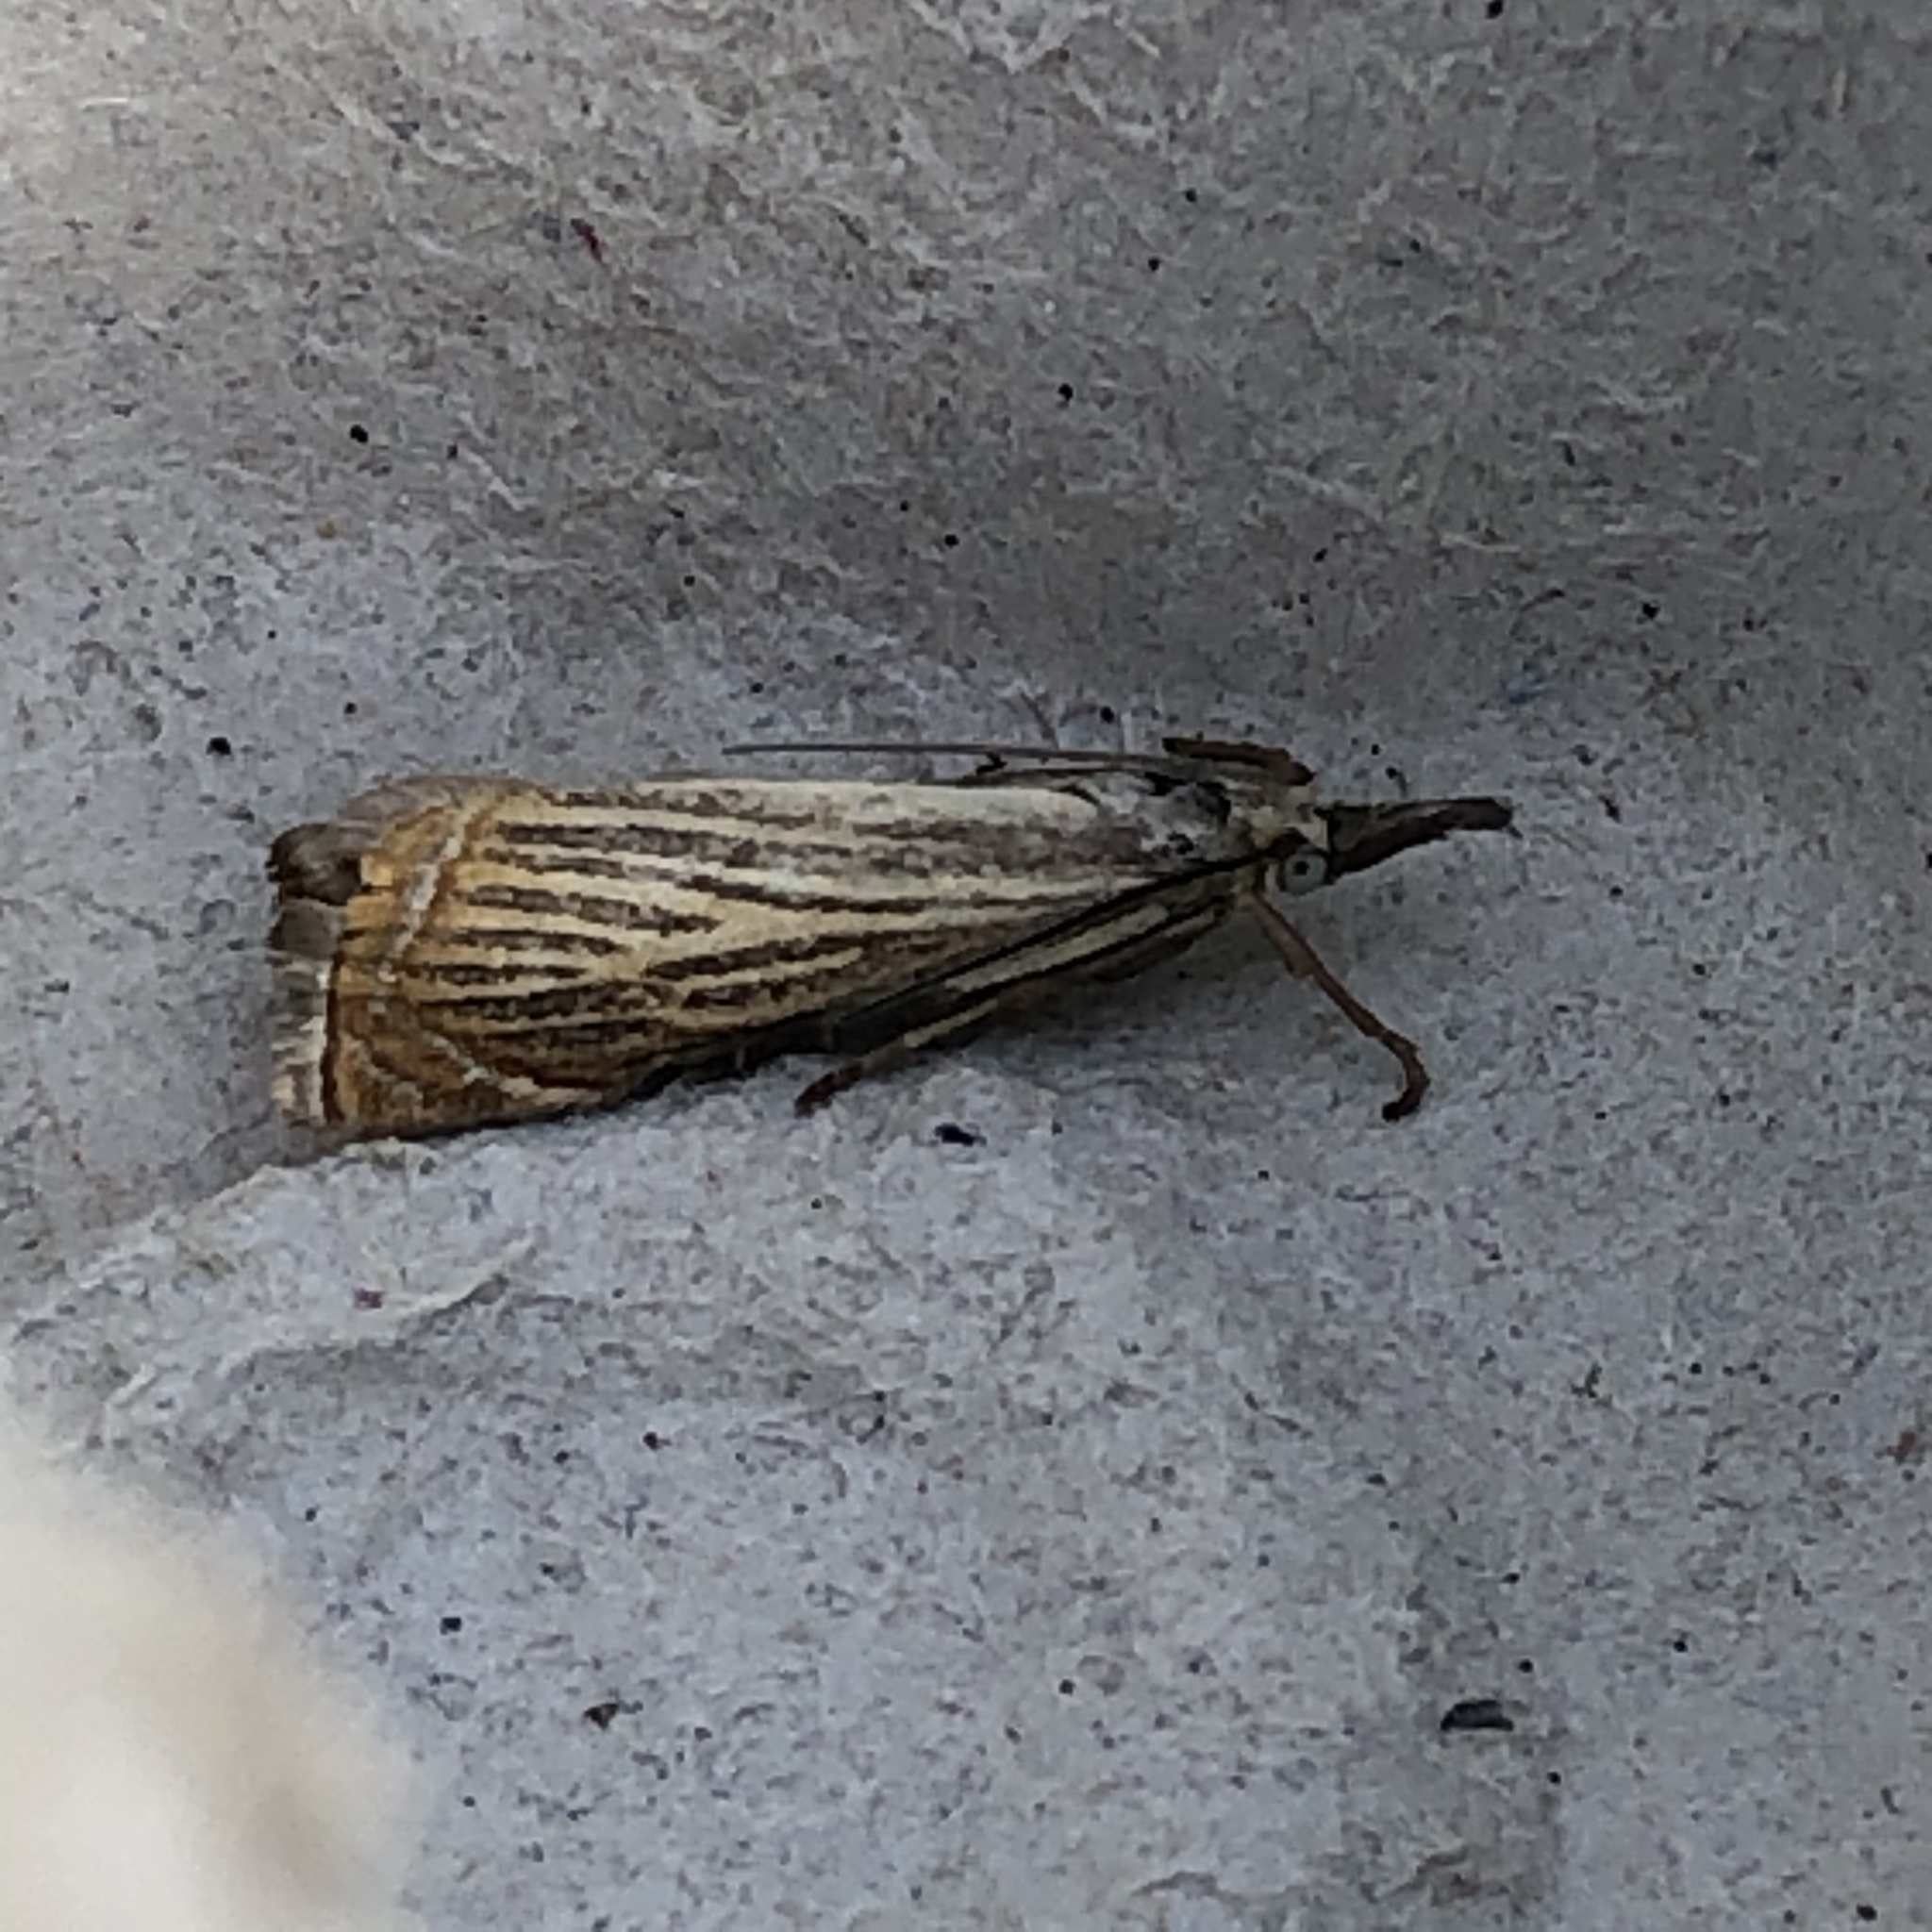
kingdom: Animalia
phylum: Arthropoda
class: Insecta
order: Lepidoptera
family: Crambidae
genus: Chrysoteuchia
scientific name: Chrysoteuchia culmella
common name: Garden grass-veneer
